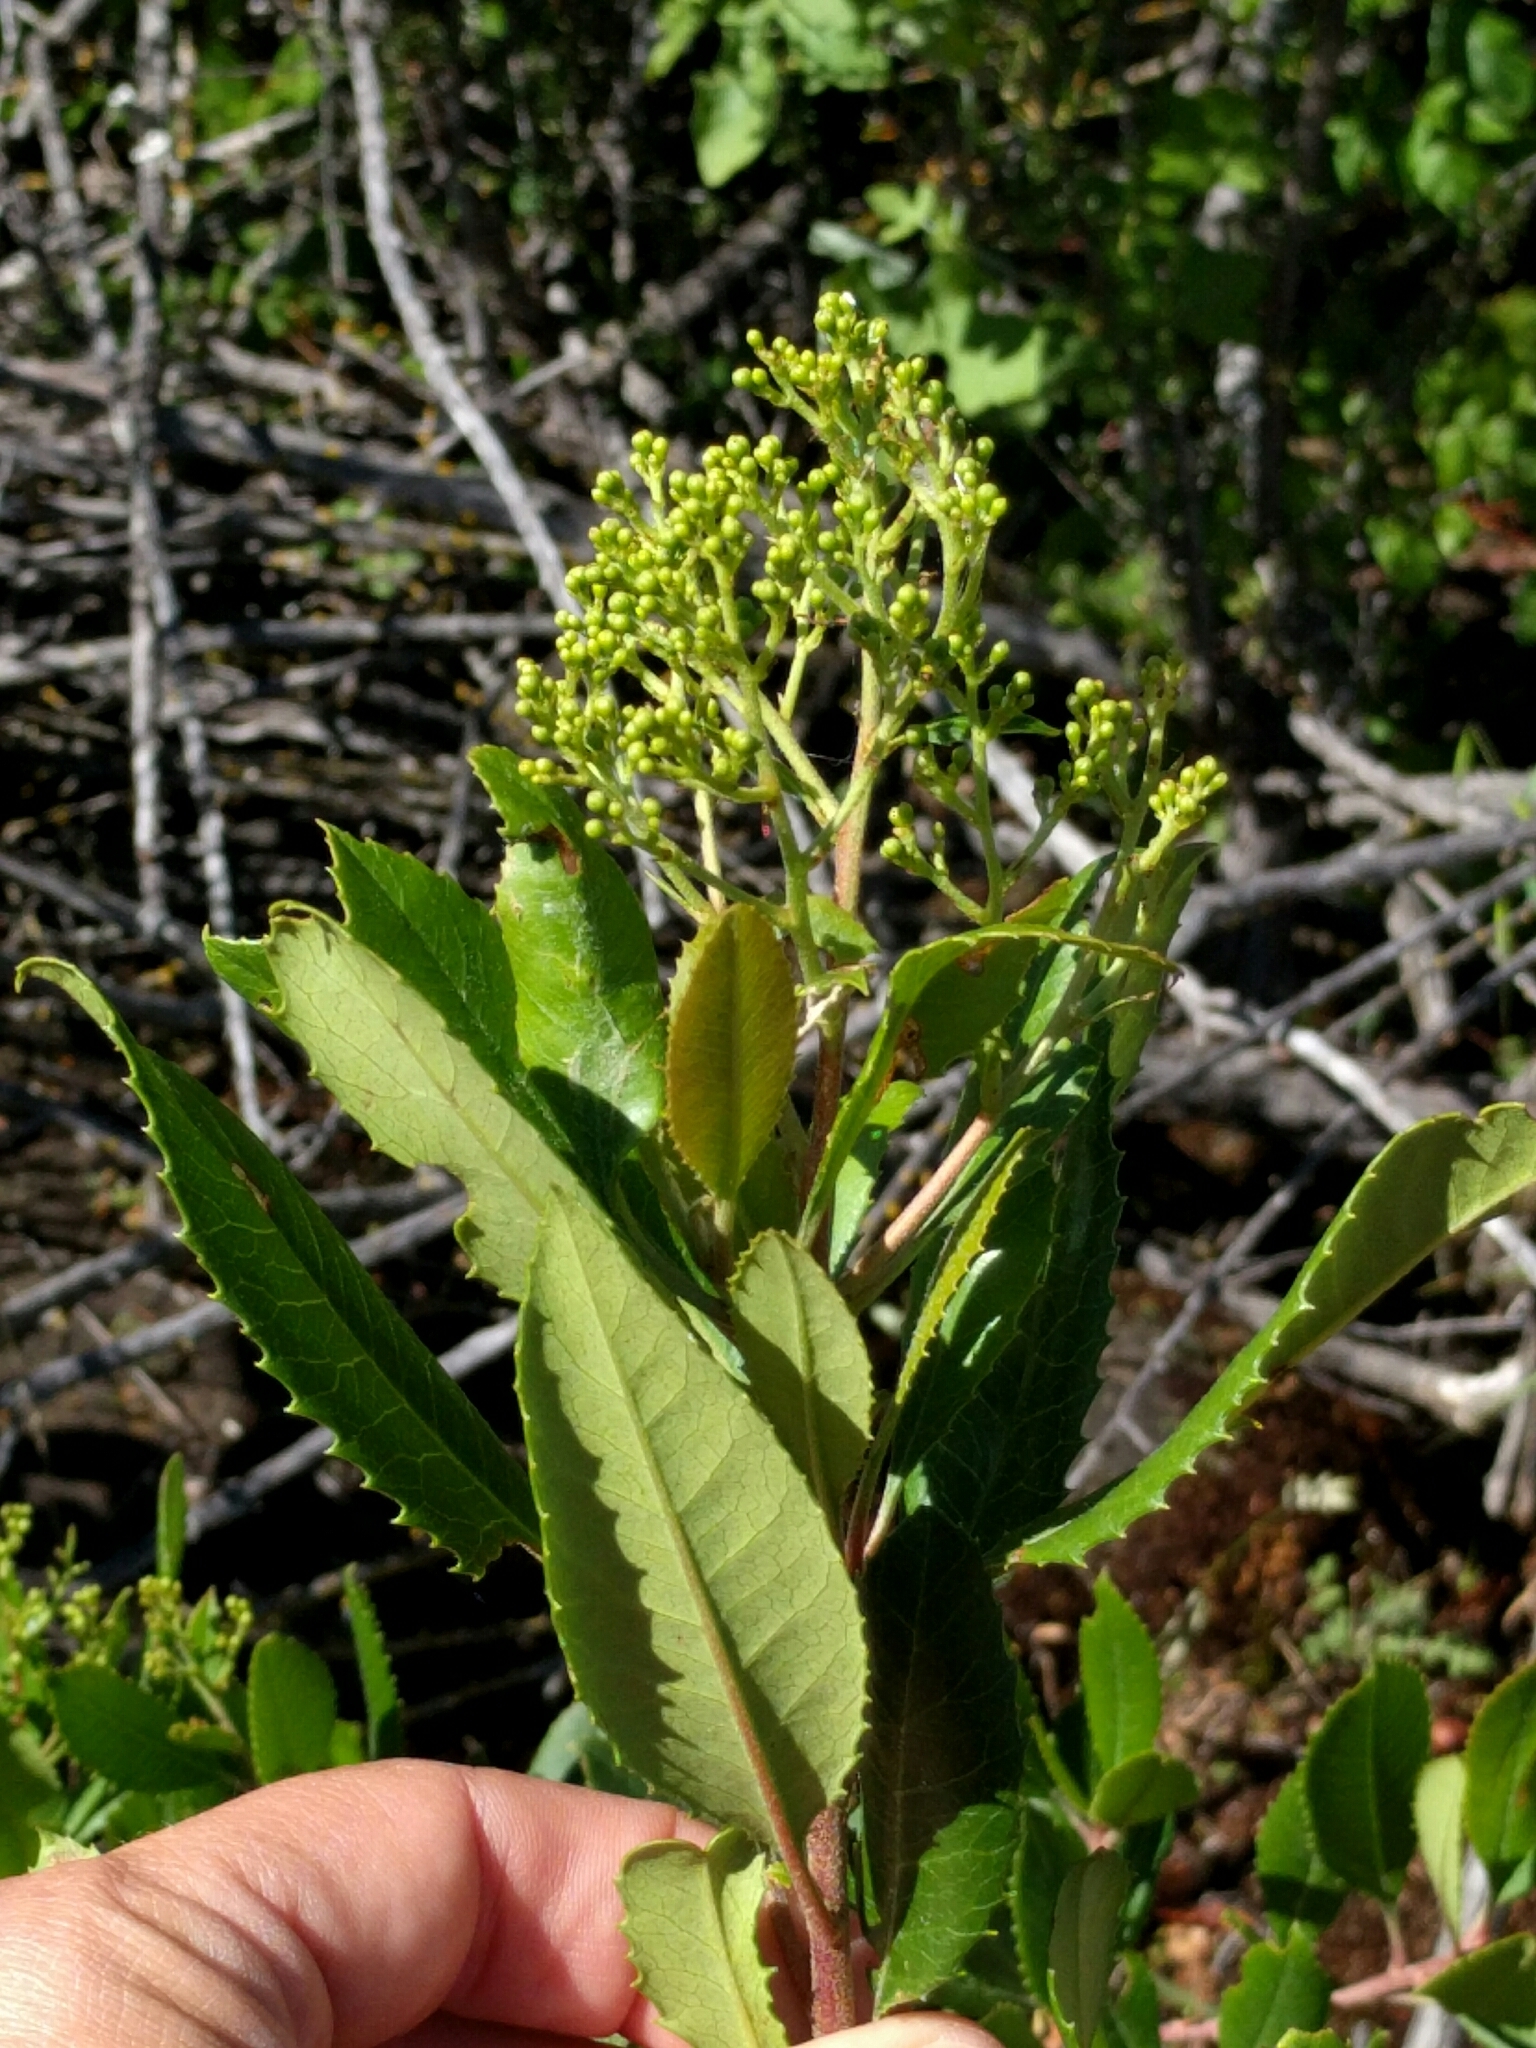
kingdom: Plantae
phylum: Tracheophyta
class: Magnoliopsida
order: Rosales
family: Rosaceae
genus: Heteromeles
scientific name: Heteromeles arbutifolia
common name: California-holly
